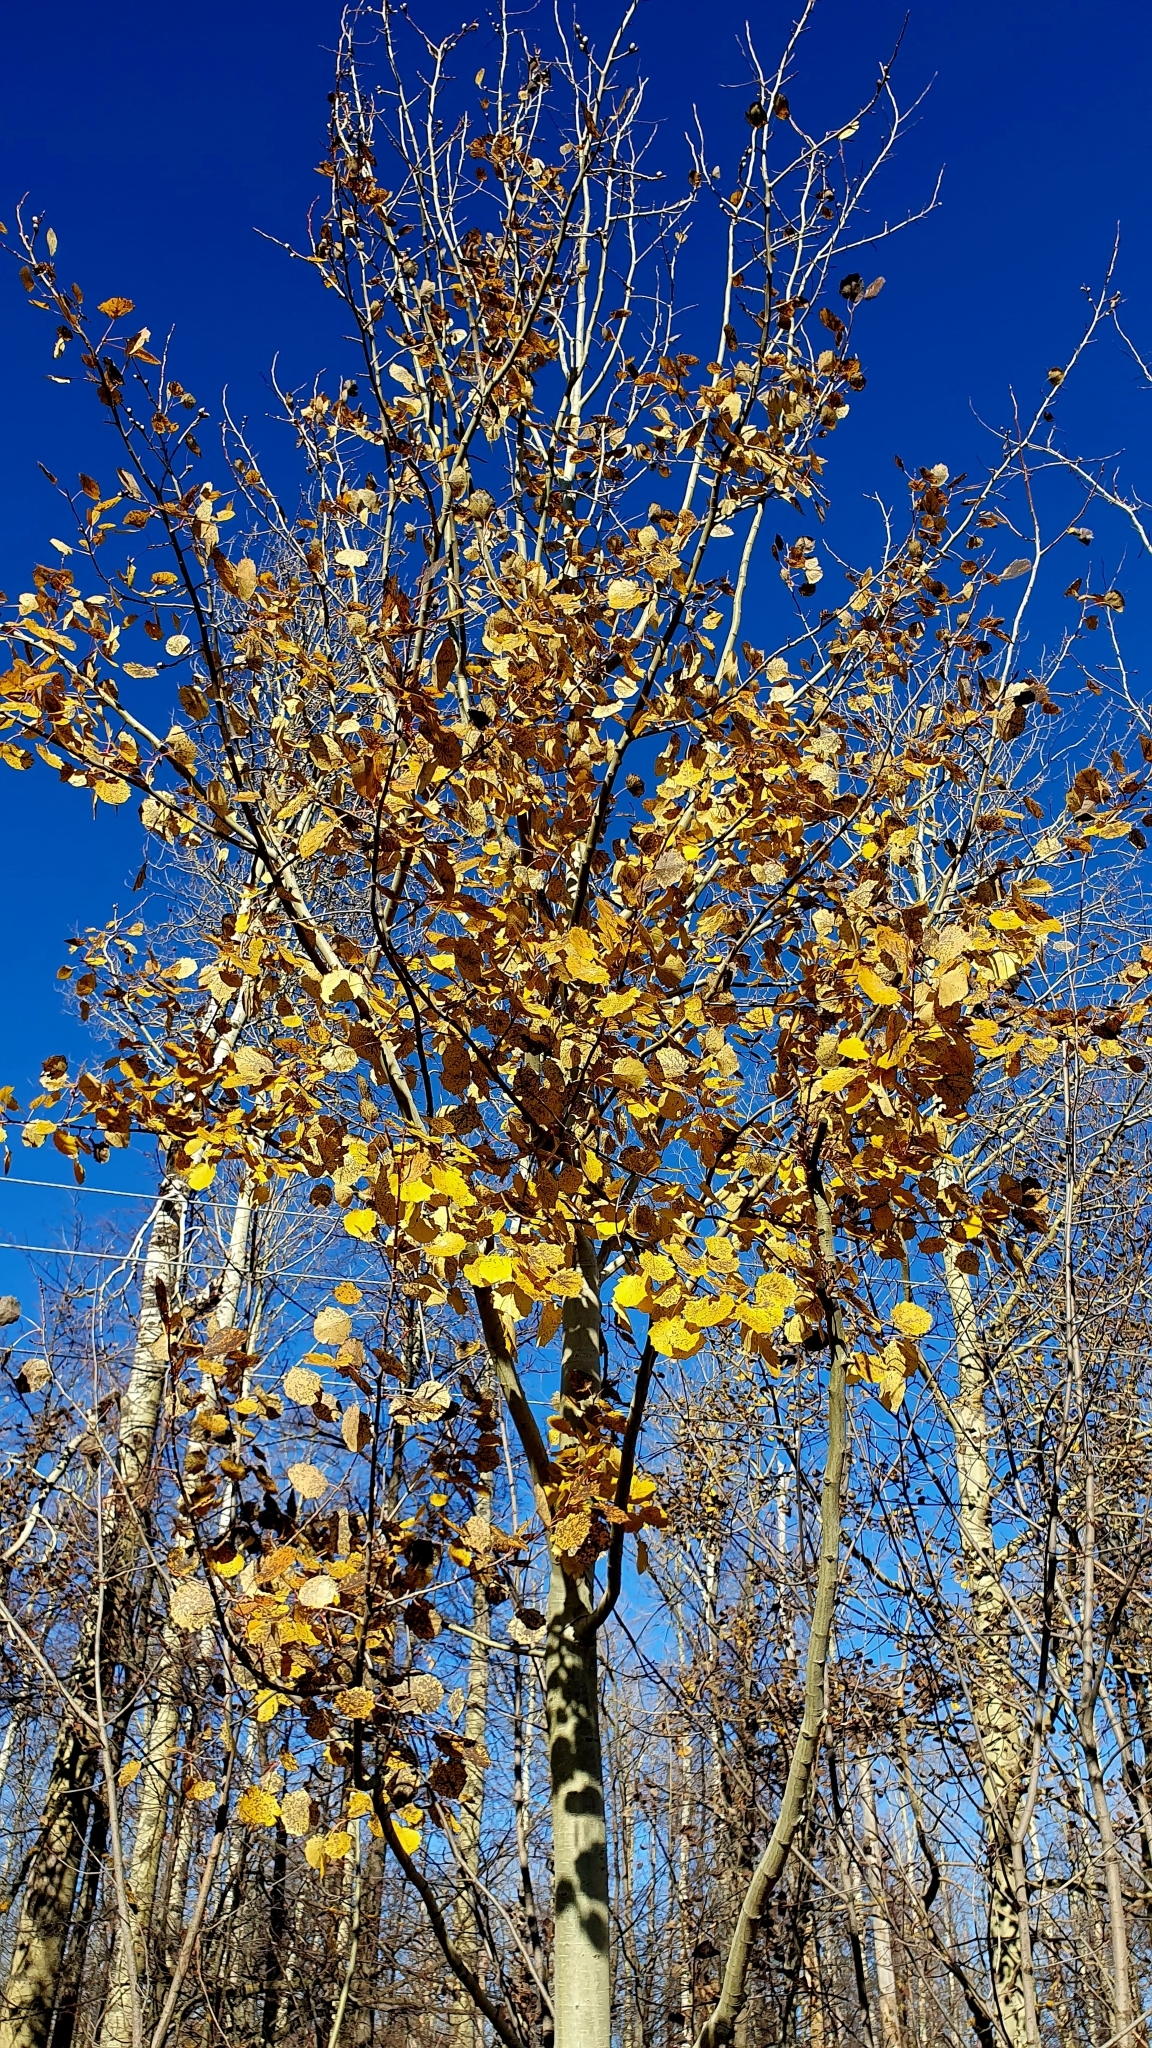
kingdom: Plantae
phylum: Tracheophyta
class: Magnoliopsida
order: Malpighiales
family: Salicaceae
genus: Populus
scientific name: Populus tremula
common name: European aspen
